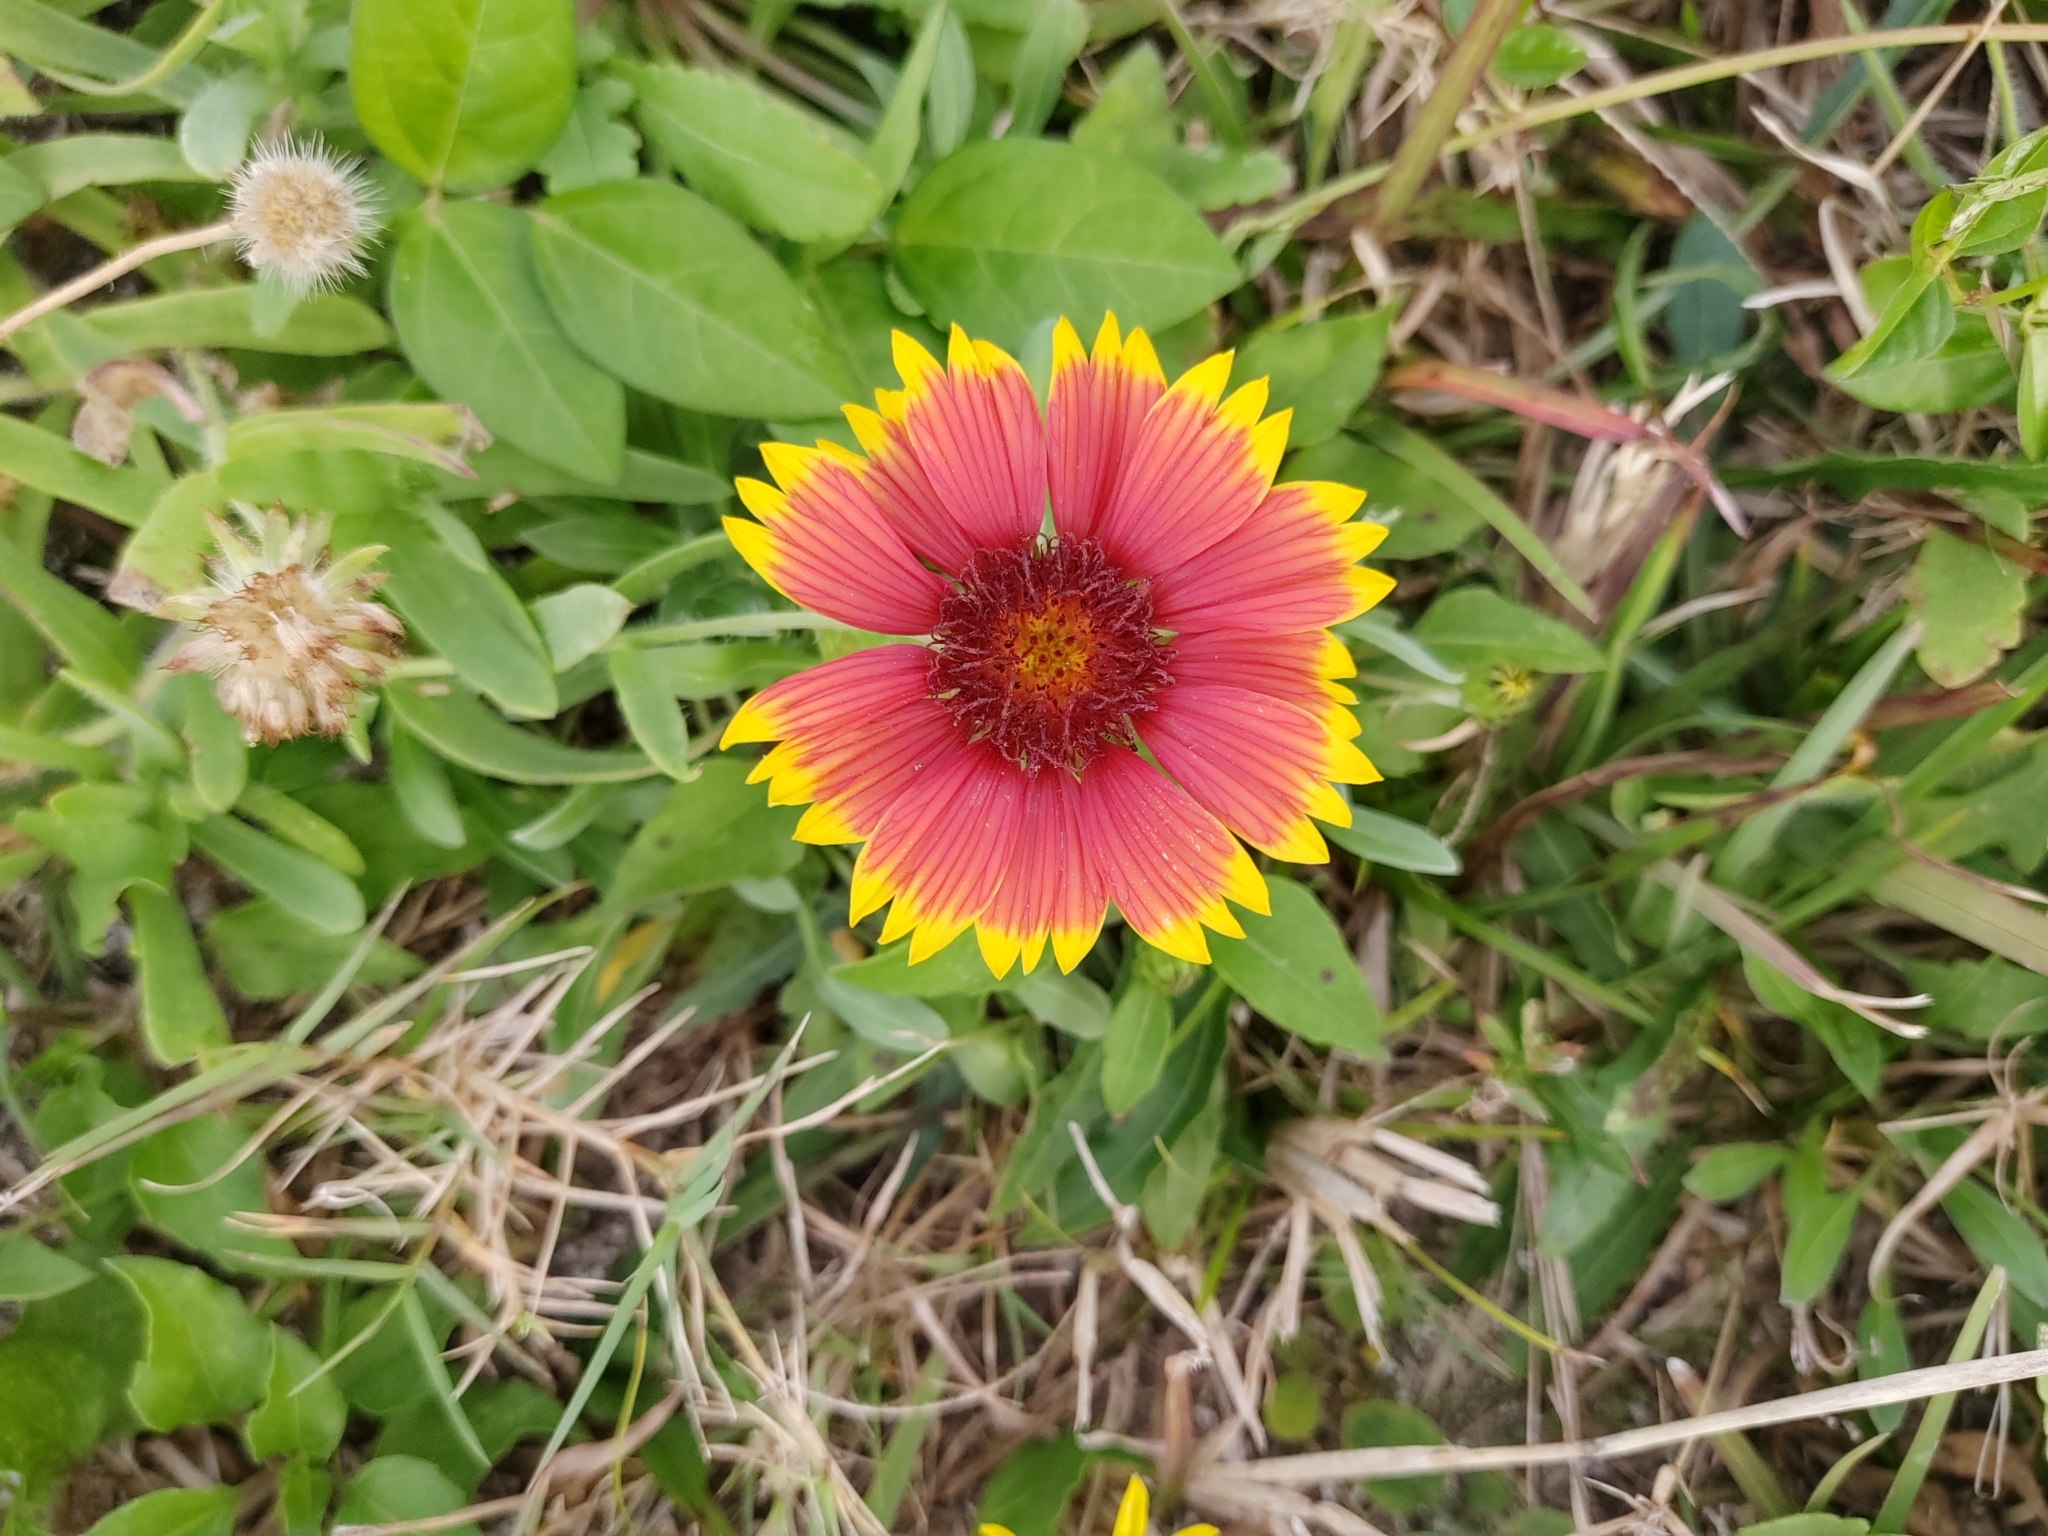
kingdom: Plantae
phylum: Tracheophyta
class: Magnoliopsida
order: Asterales
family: Asteraceae
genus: Gaillardia
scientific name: Gaillardia pulchella
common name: Firewheel
